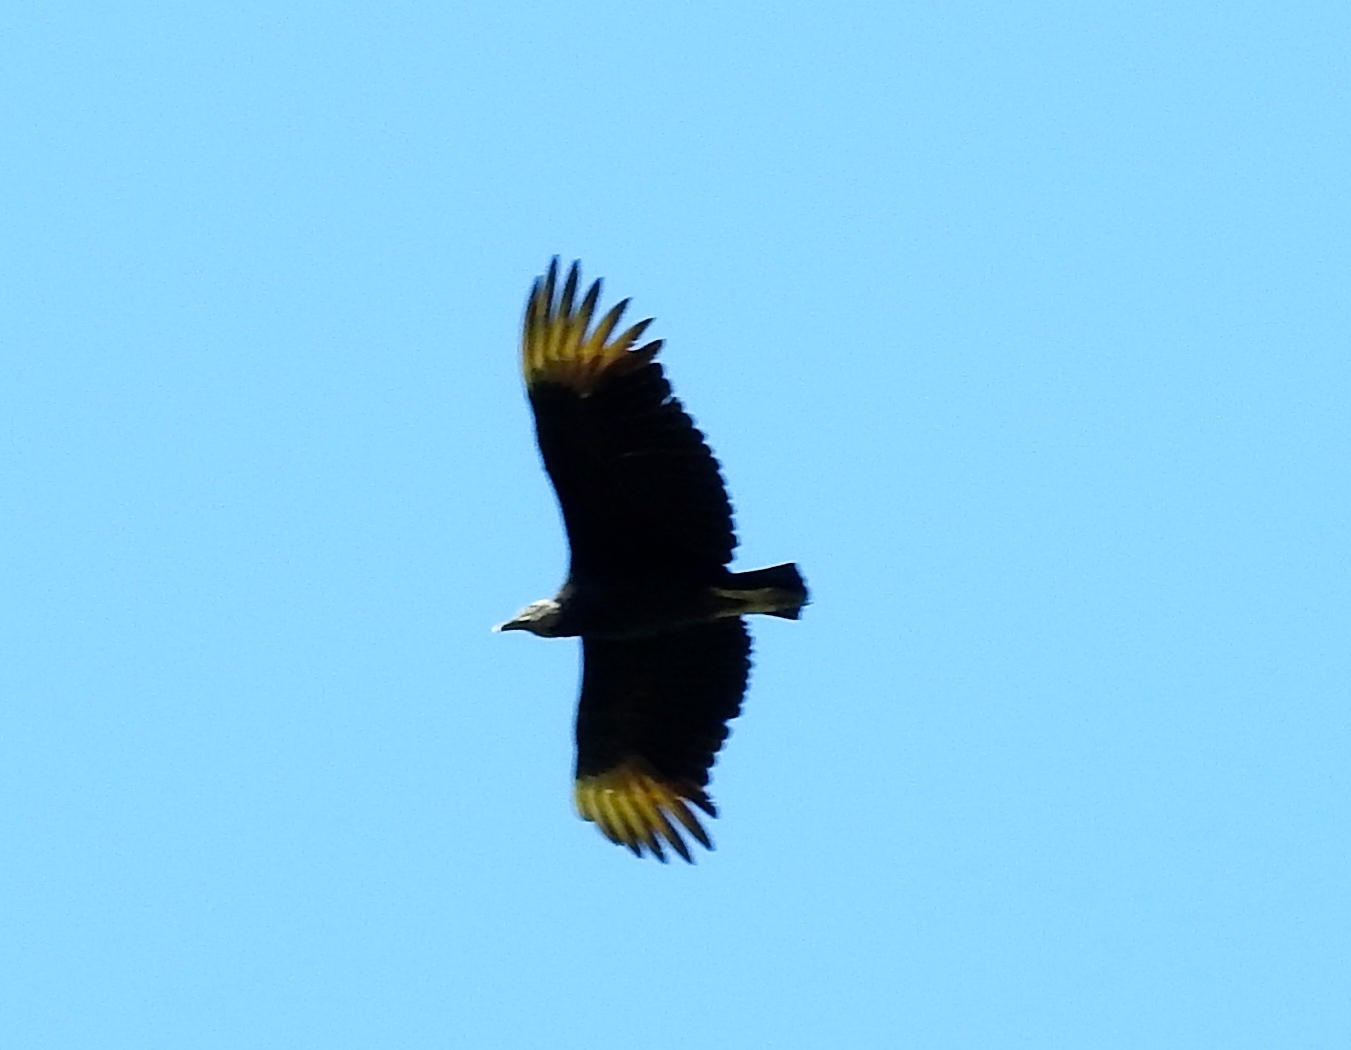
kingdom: Animalia
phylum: Chordata
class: Aves
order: Accipitriformes
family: Cathartidae
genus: Coragyps
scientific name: Coragyps atratus
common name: Black vulture
